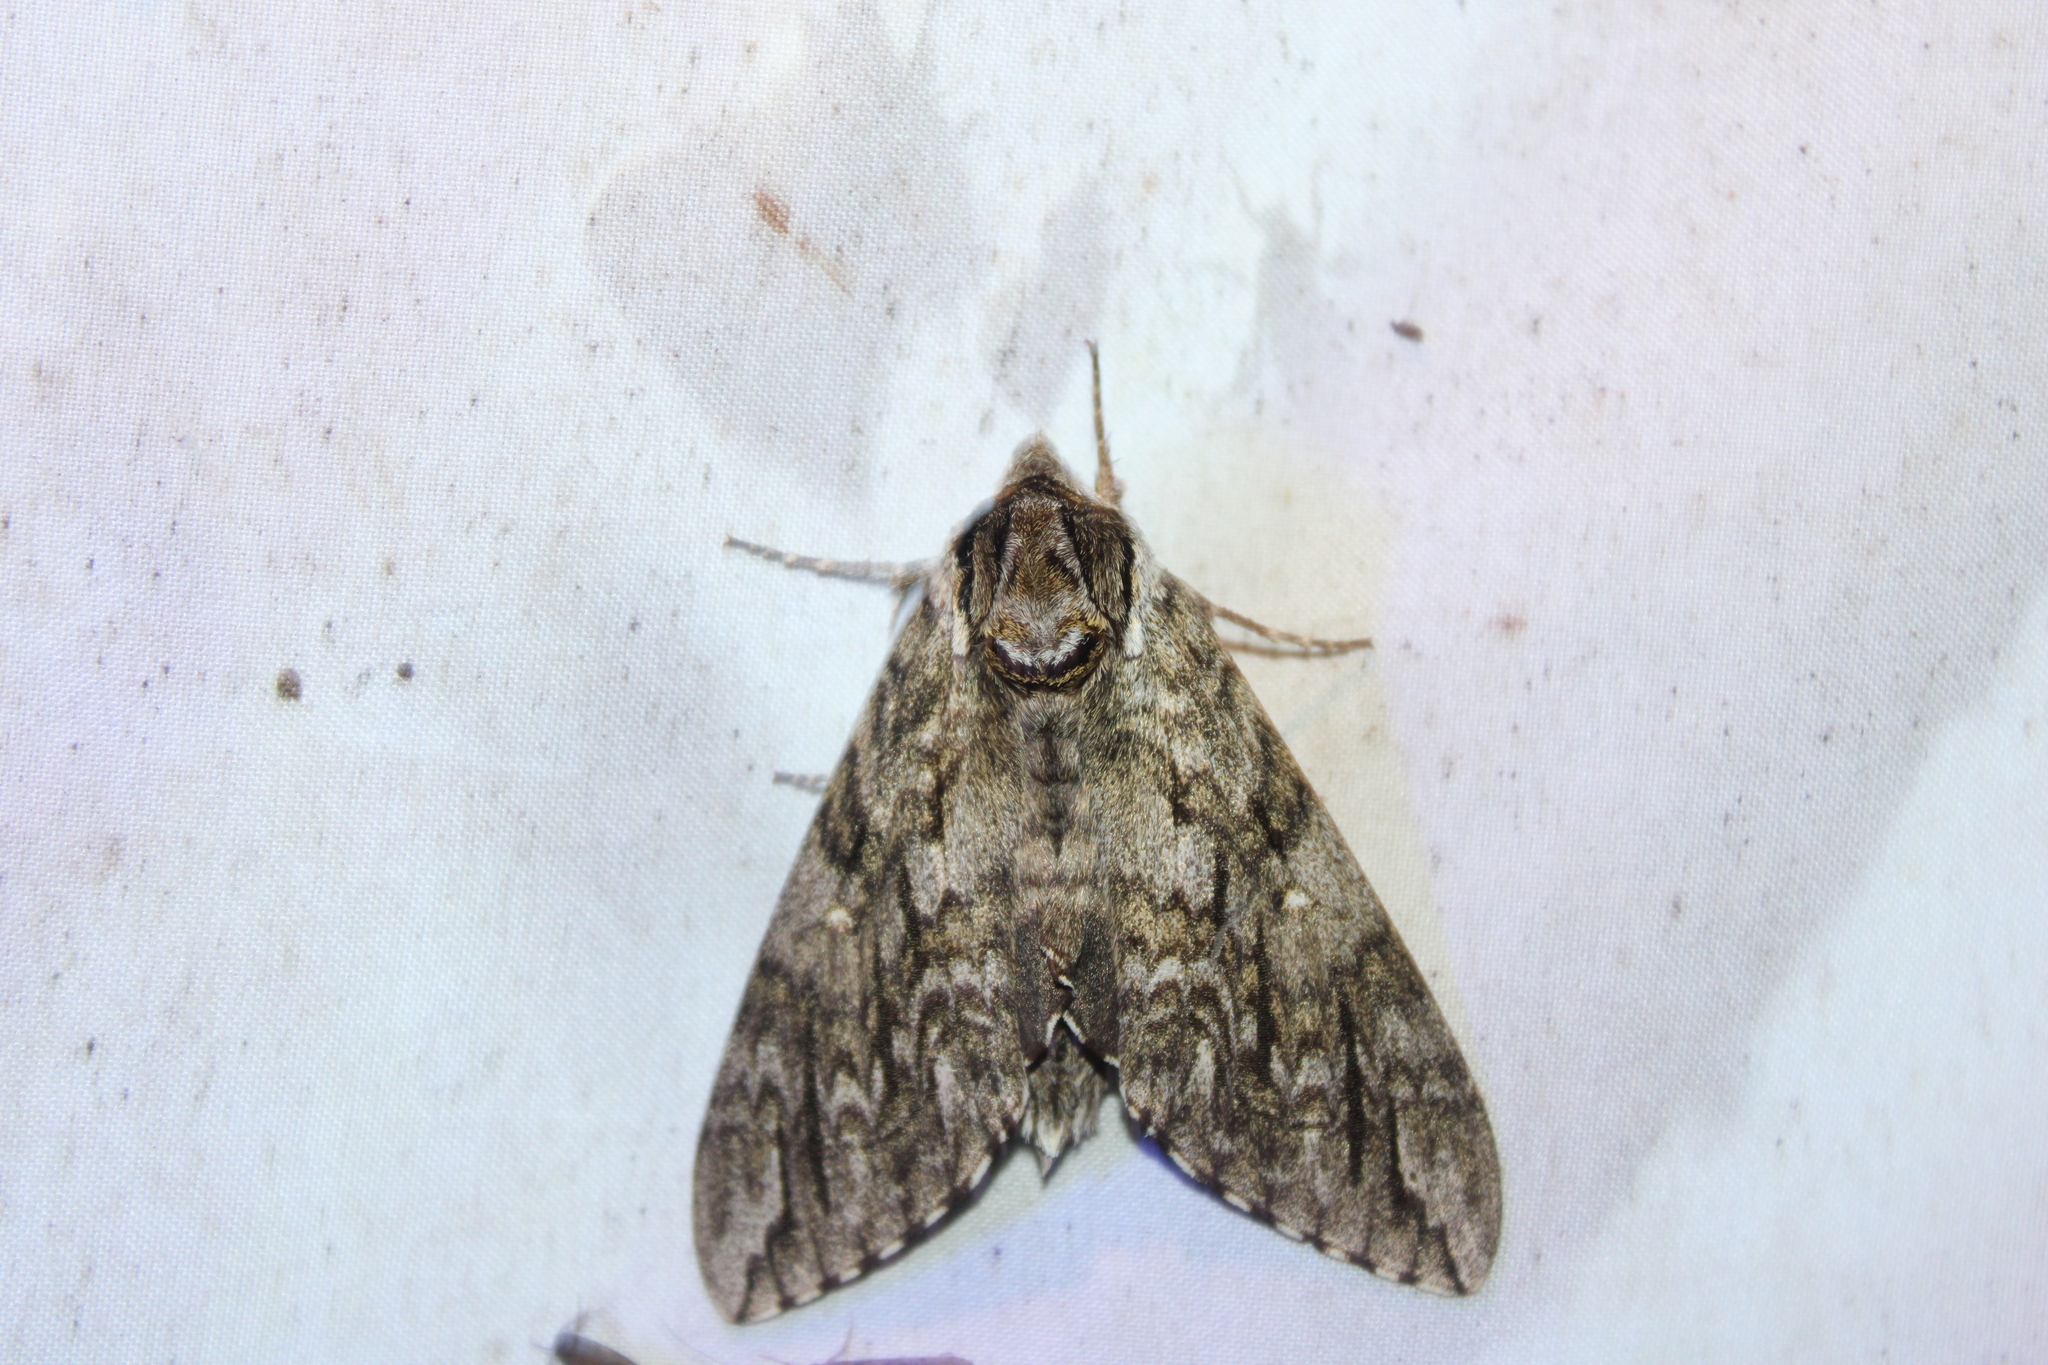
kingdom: Animalia
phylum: Arthropoda
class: Insecta
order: Lepidoptera
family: Sphingidae
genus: Ceratomia
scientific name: Ceratomia undulosa
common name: Waved sphinx
